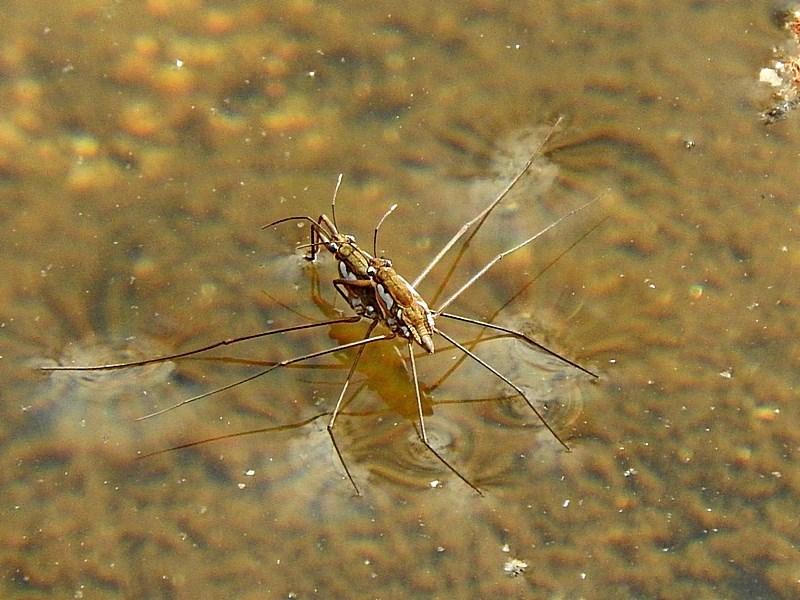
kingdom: Animalia
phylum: Arthropoda
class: Insecta
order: Hemiptera
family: Gerridae
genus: Tenagogerris
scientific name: Tenagogerris euphrosyne
